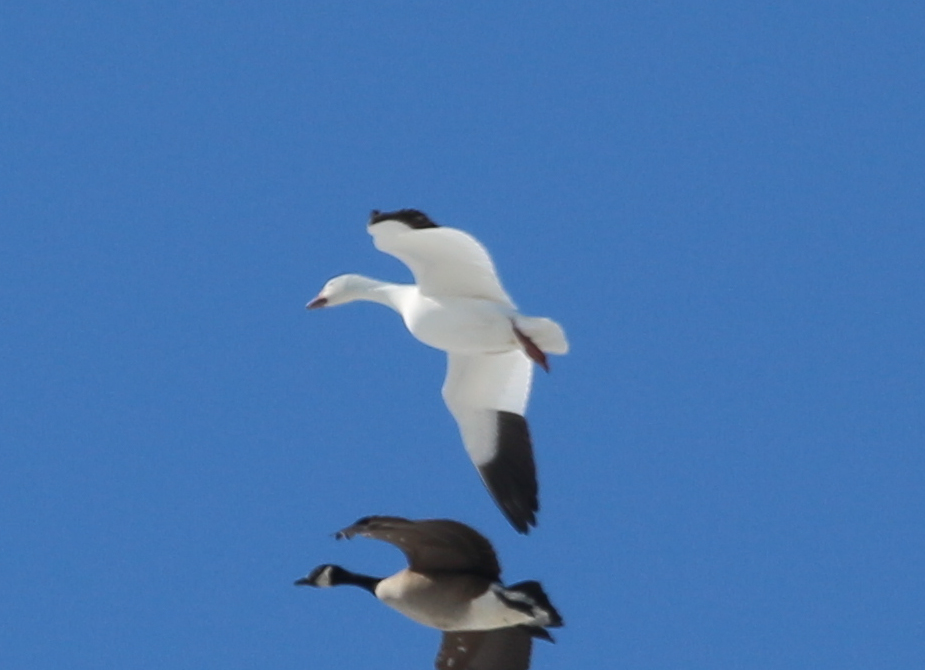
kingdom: Animalia
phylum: Chordata
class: Aves
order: Anseriformes
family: Anatidae
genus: Anser
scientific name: Anser caerulescens
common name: Snow goose
